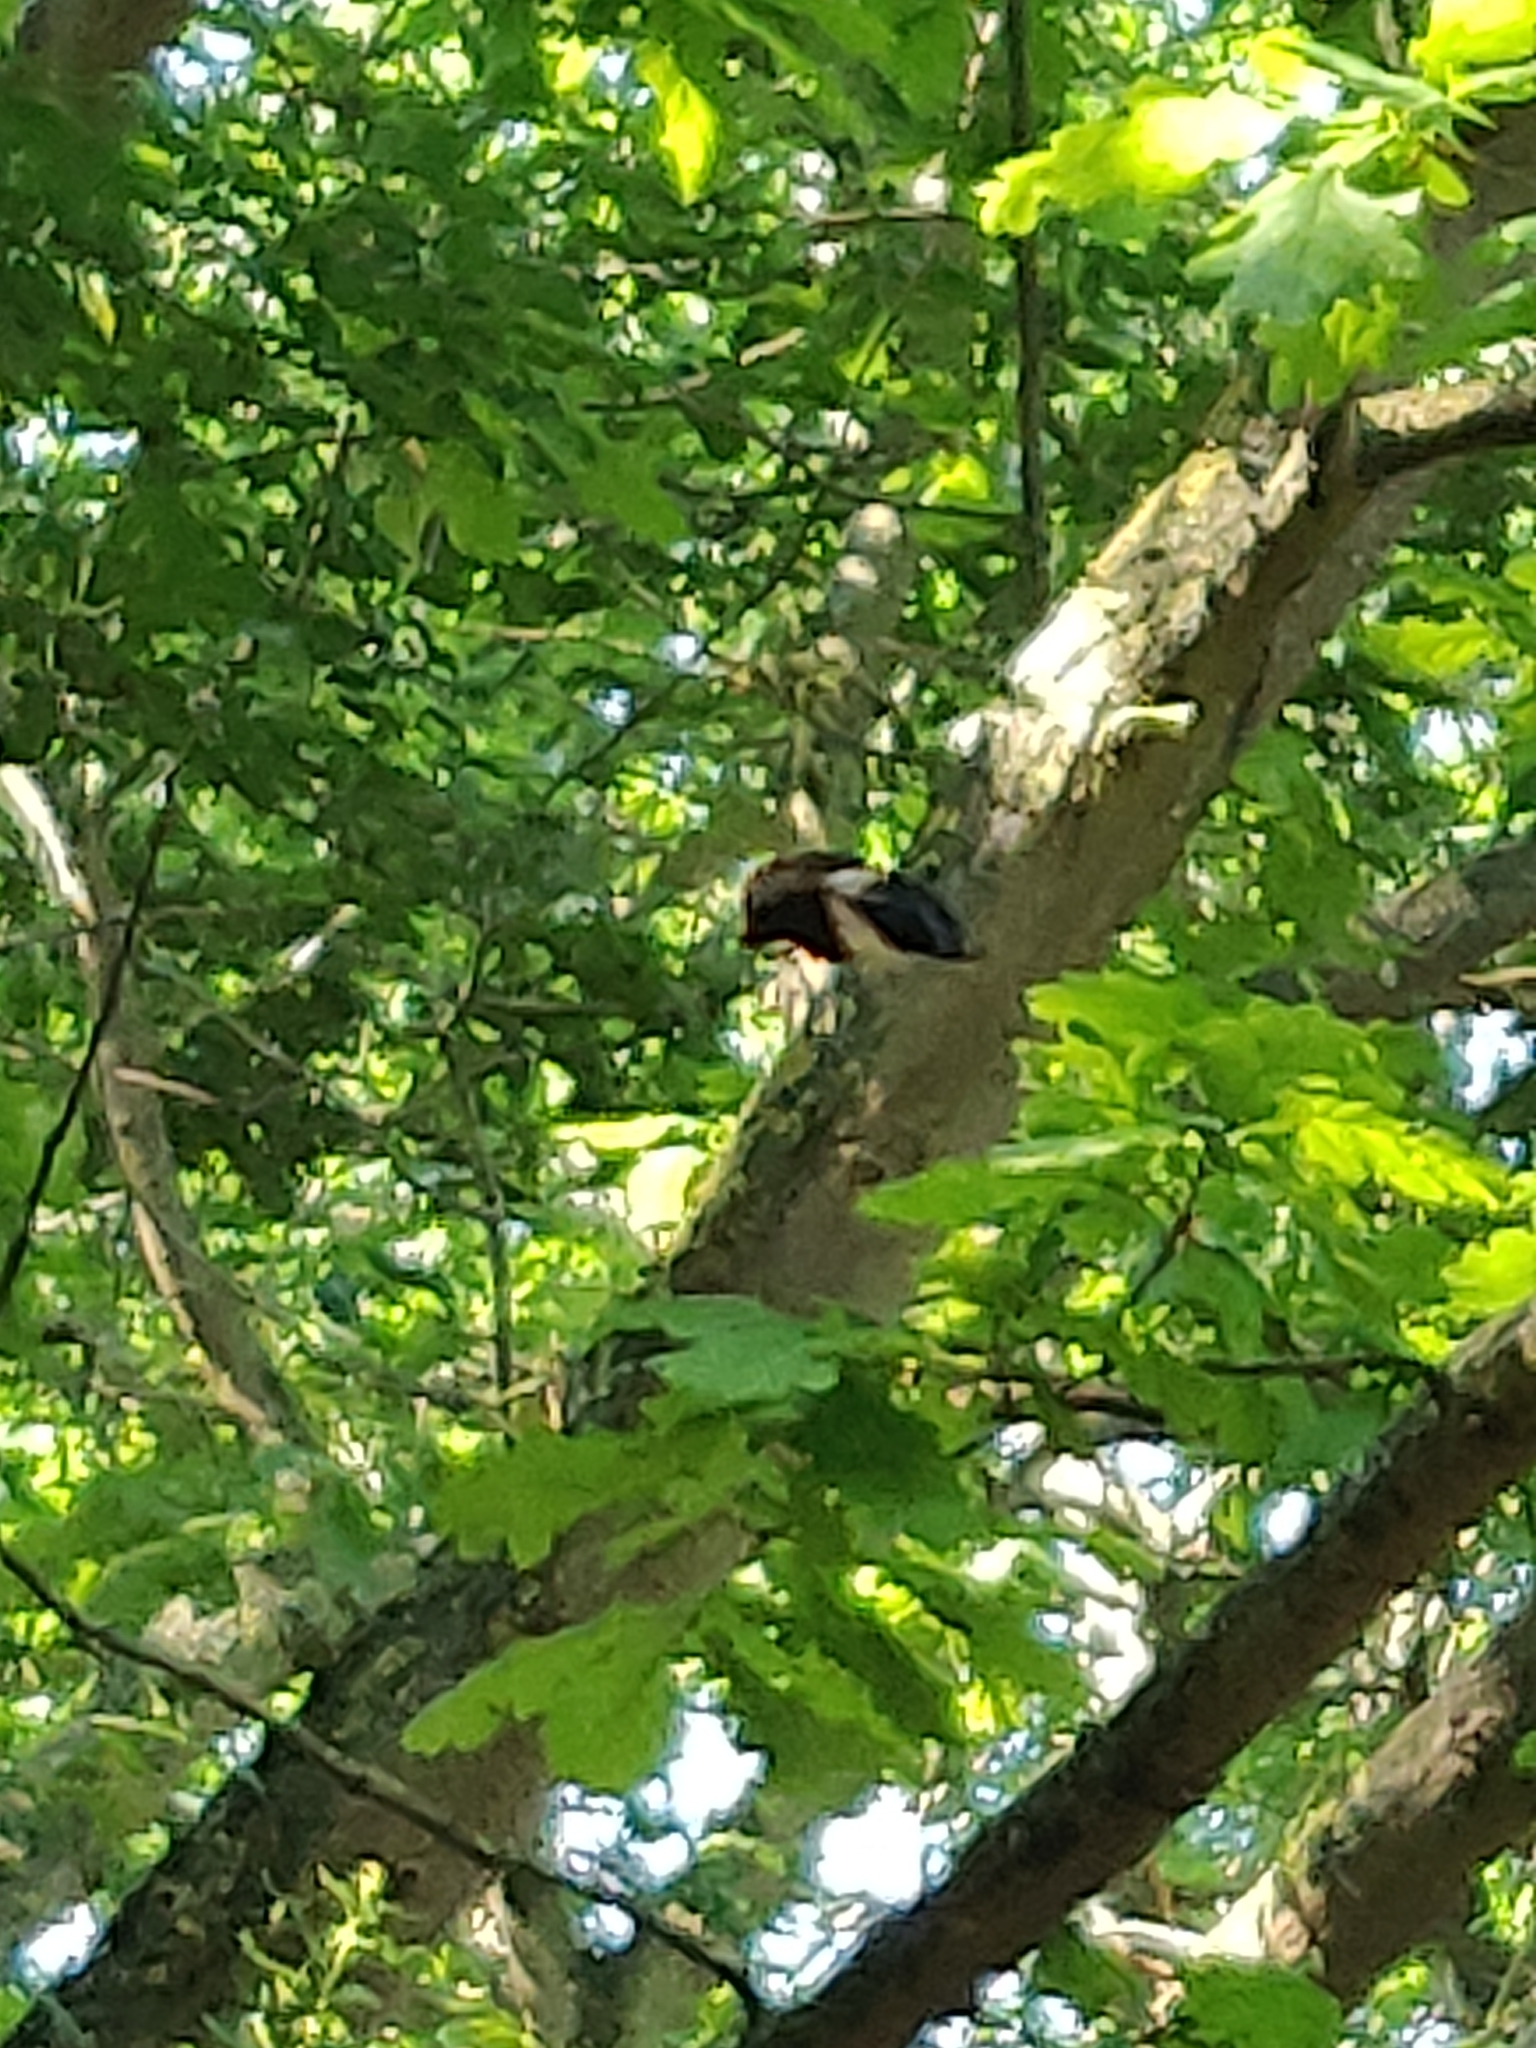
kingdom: Animalia
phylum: Arthropoda
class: Insecta
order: Diptera
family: Syrphidae
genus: Volucella
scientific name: Volucella pellucens
